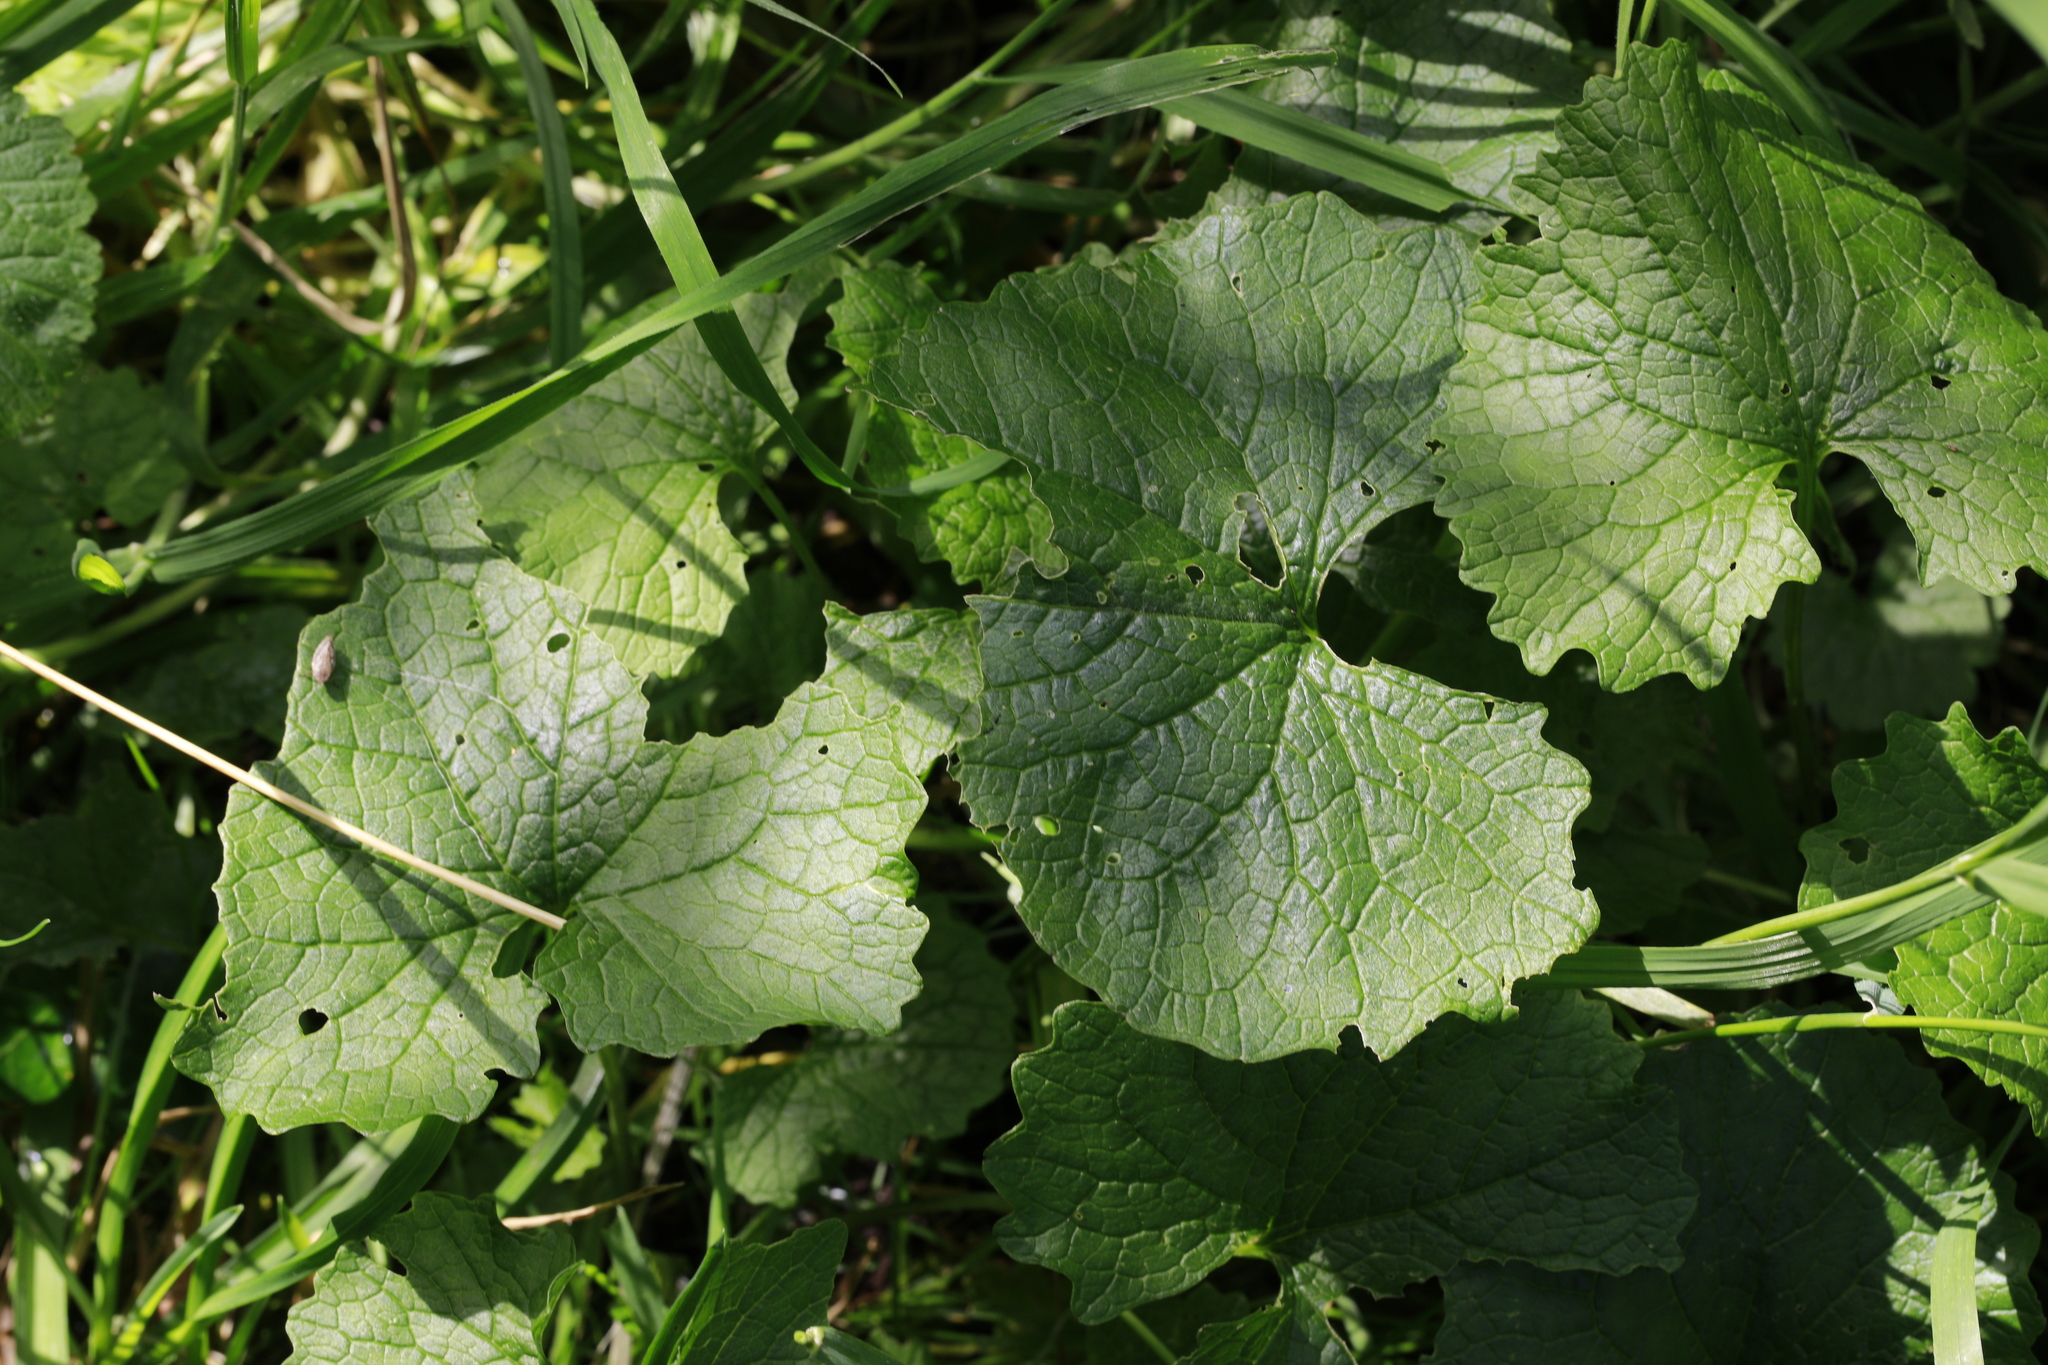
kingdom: Plantae
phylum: Tracheophyta
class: Magnoliopsida
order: Brassicales
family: Brassicaceae
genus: Alliaria
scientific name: Alliaria petiolata
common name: Garlic mustard
